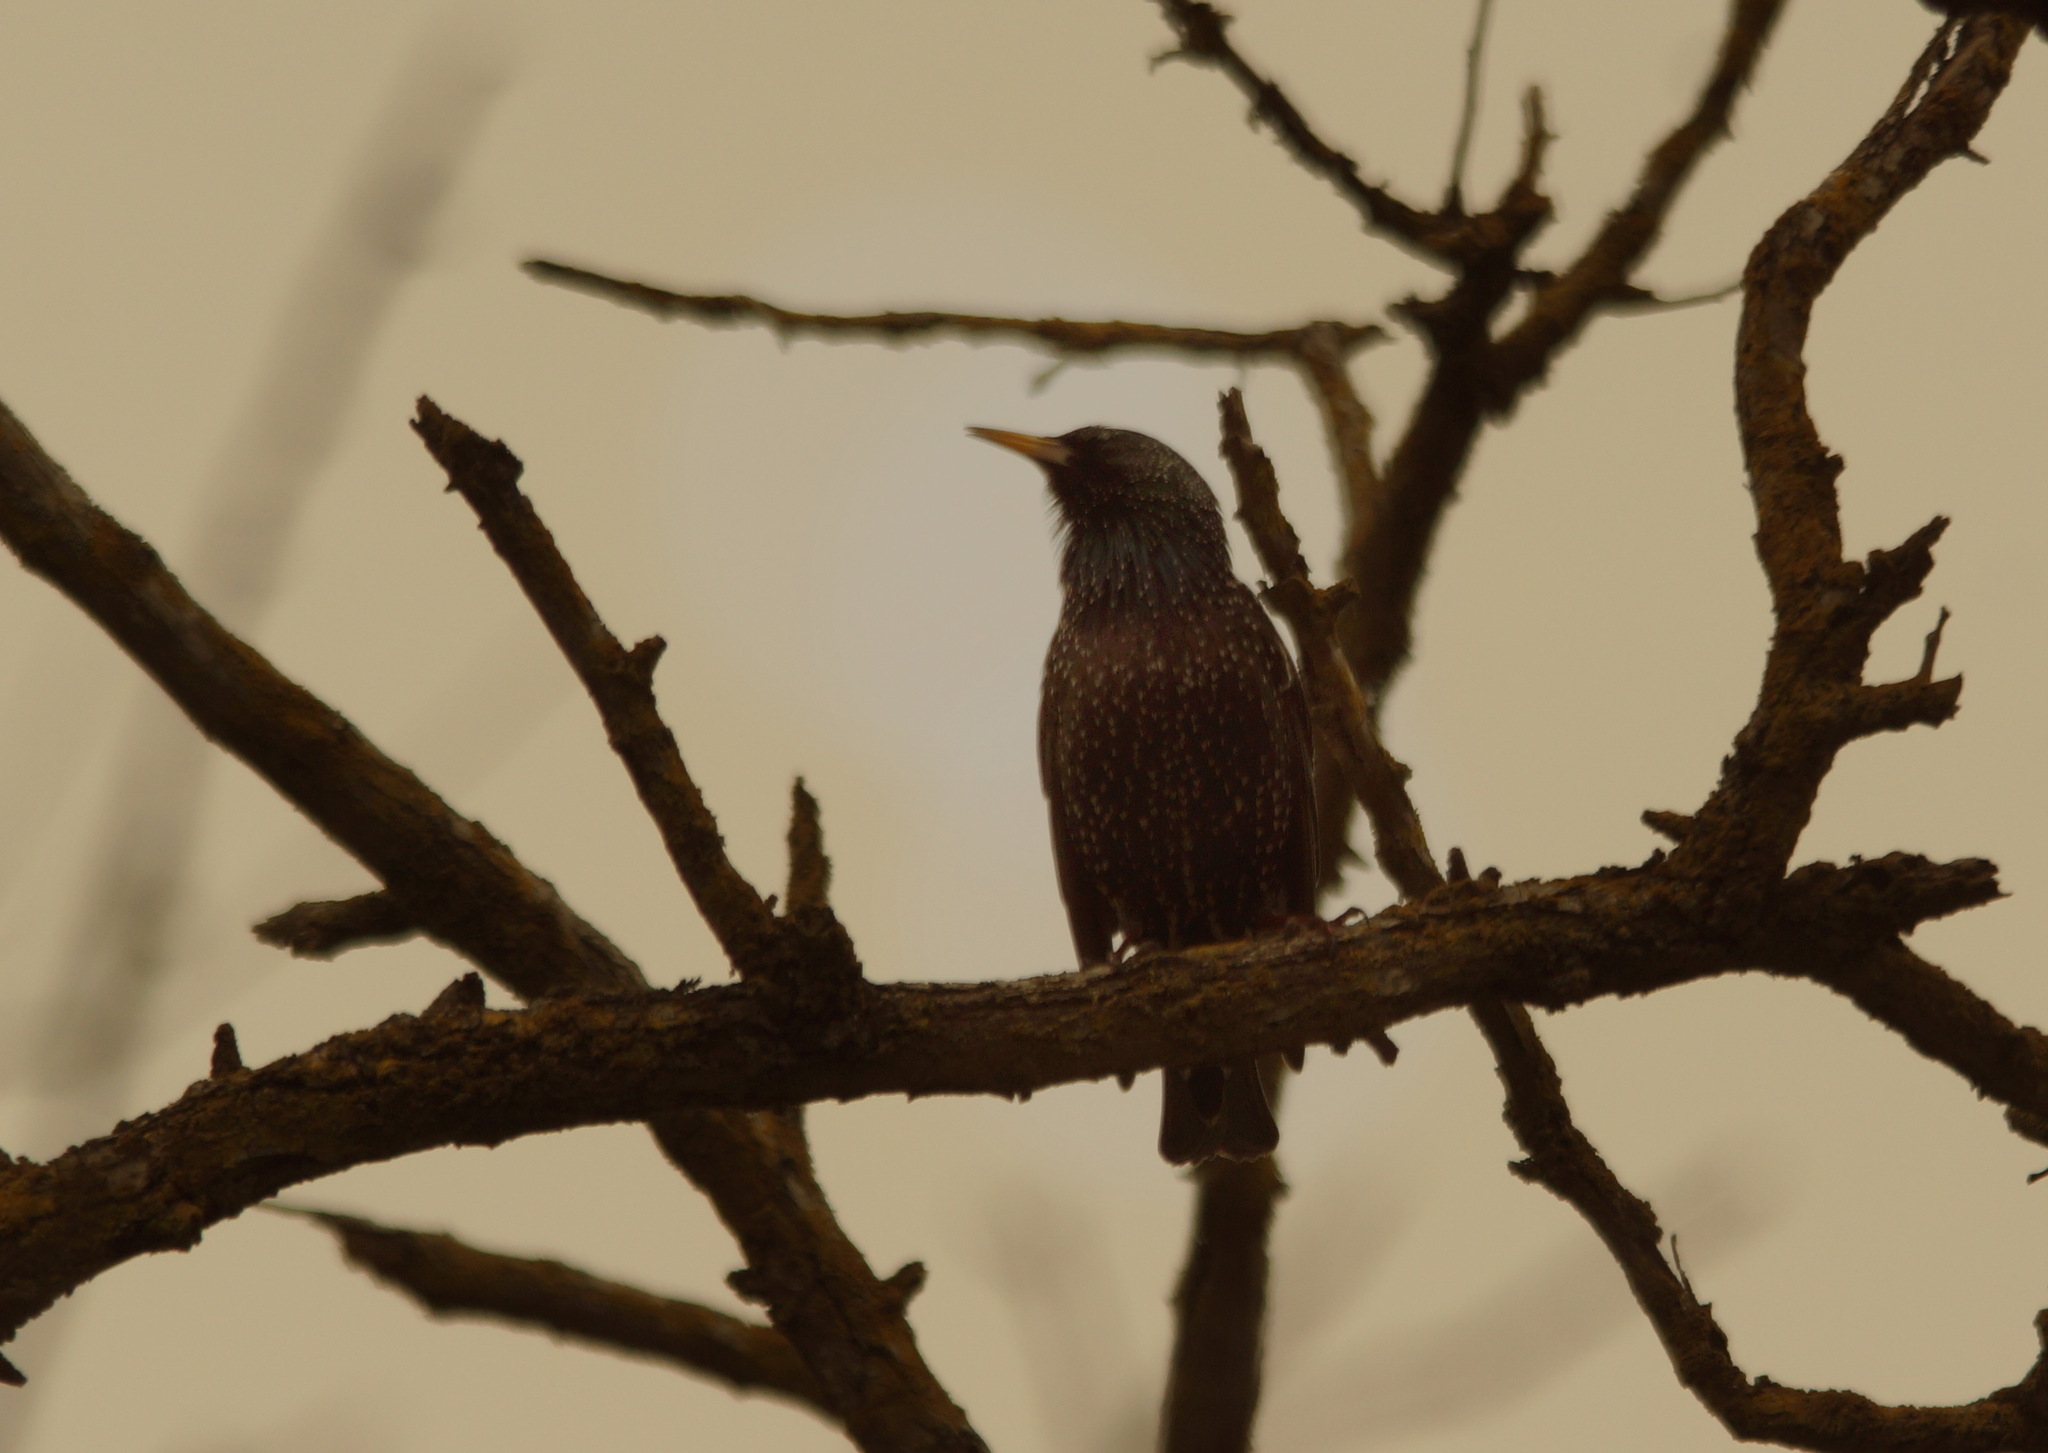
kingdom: Animalia
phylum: Chordata
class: Aves
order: Passeriformes
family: Sturnidae
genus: Sturnus
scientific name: Sturnus vulgaris
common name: Common starling
